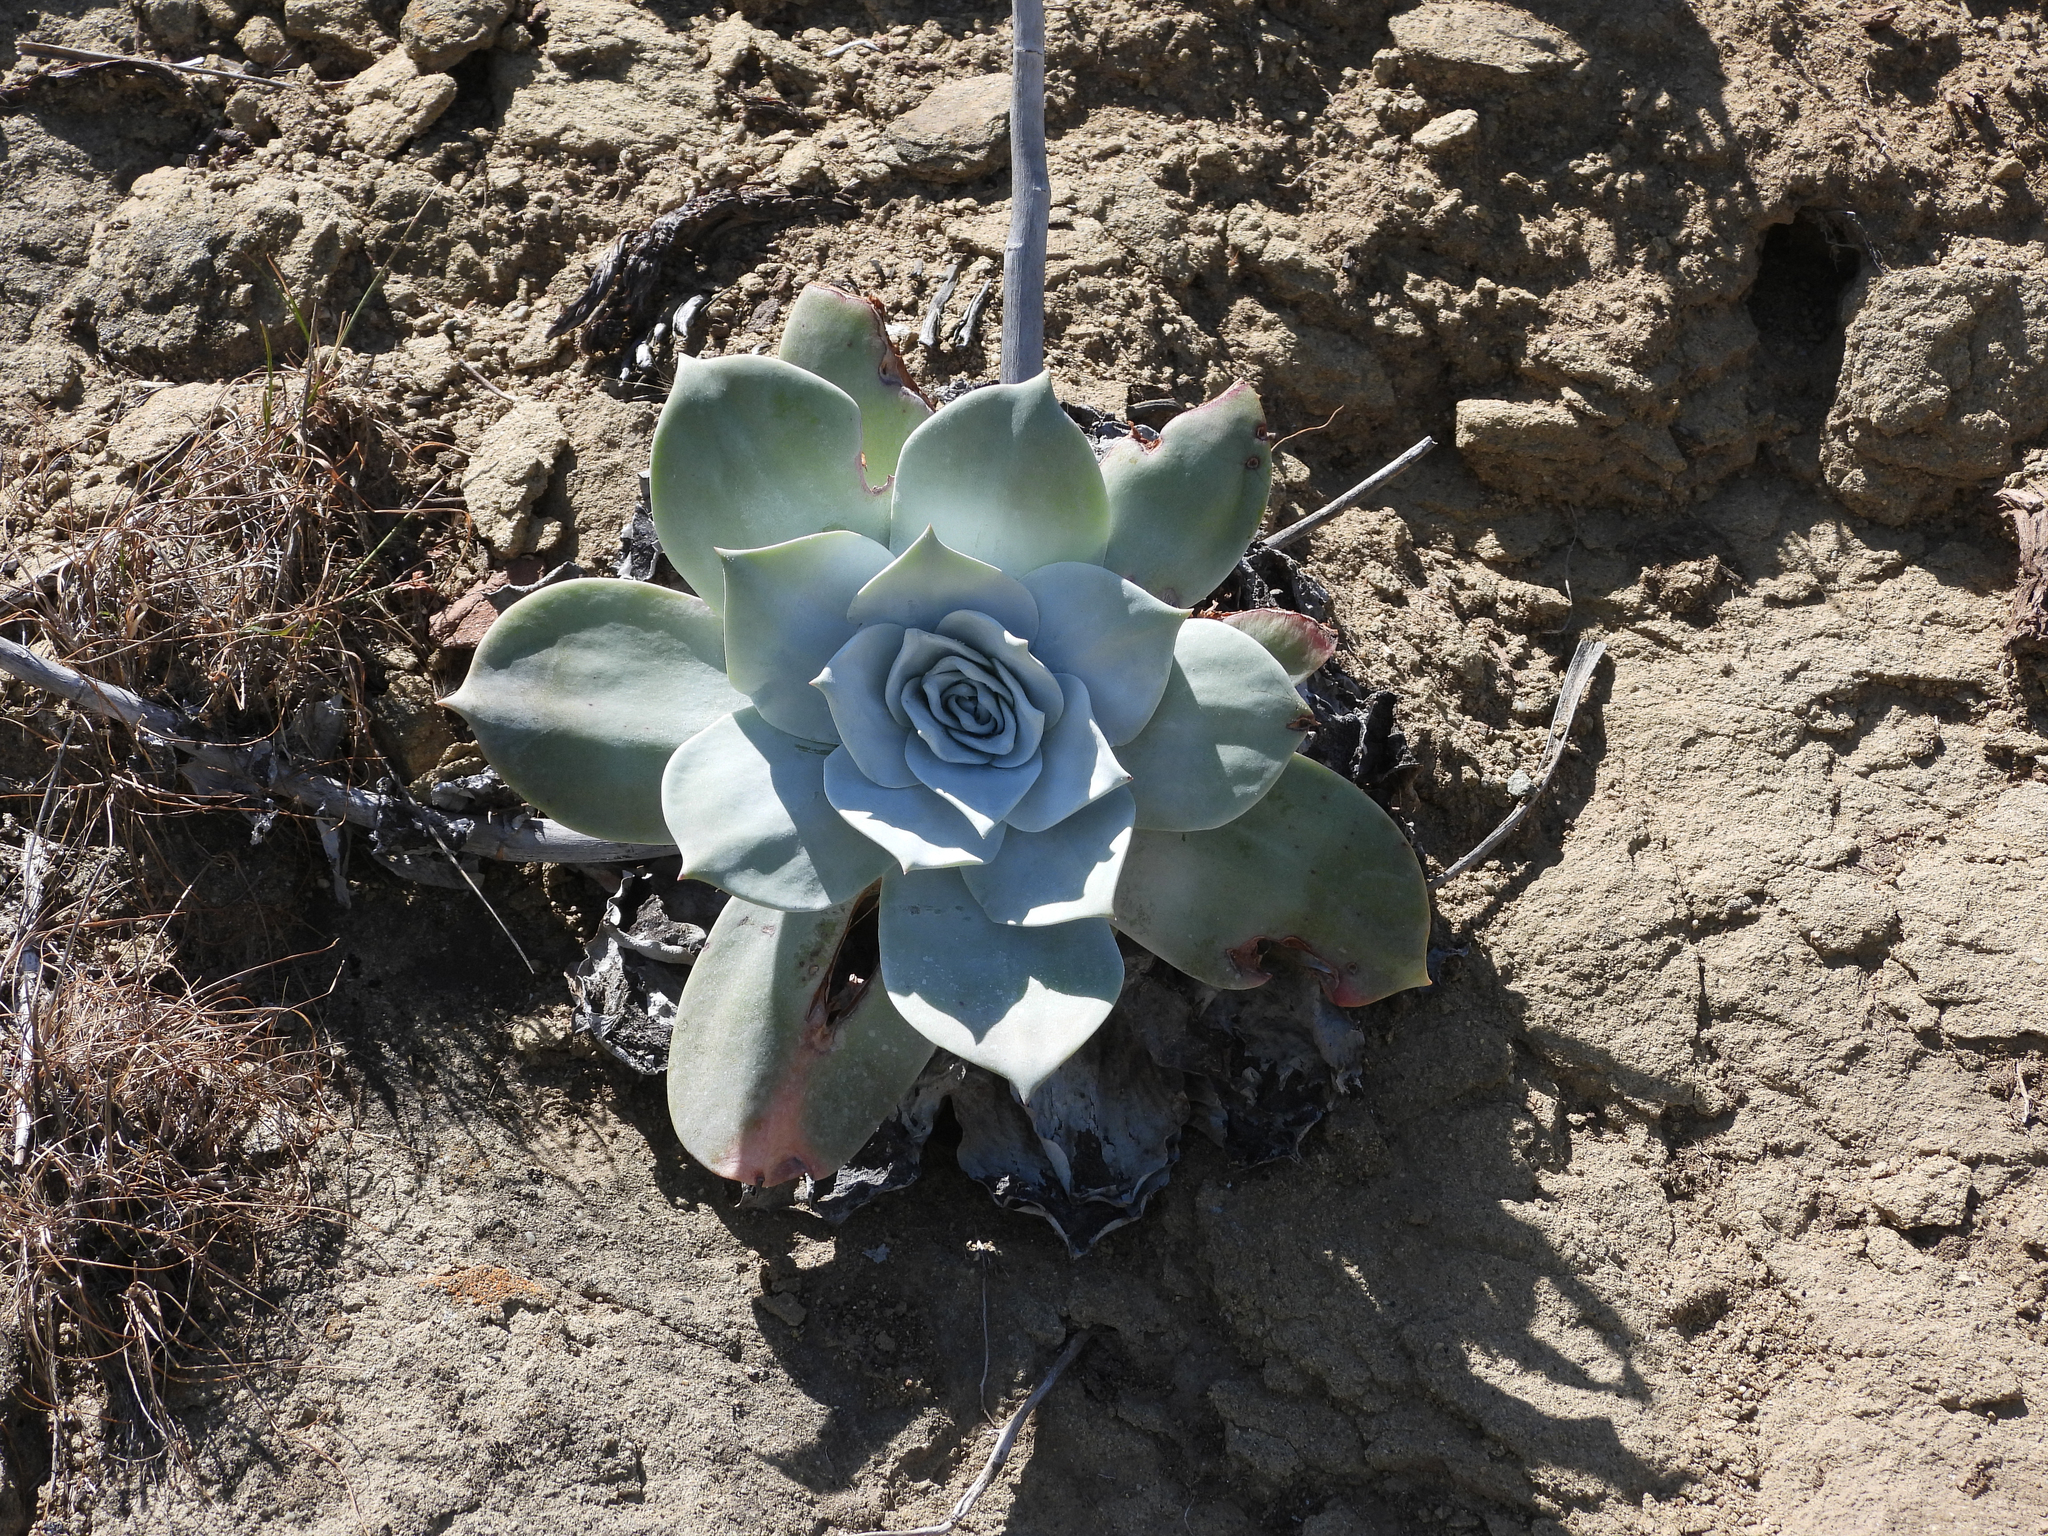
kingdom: Plantae
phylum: Tracheophyta
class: Magnoliopsida
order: Saxifragales
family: Crassulaceae
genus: Dudleya
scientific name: Dudleya pulverulenta
